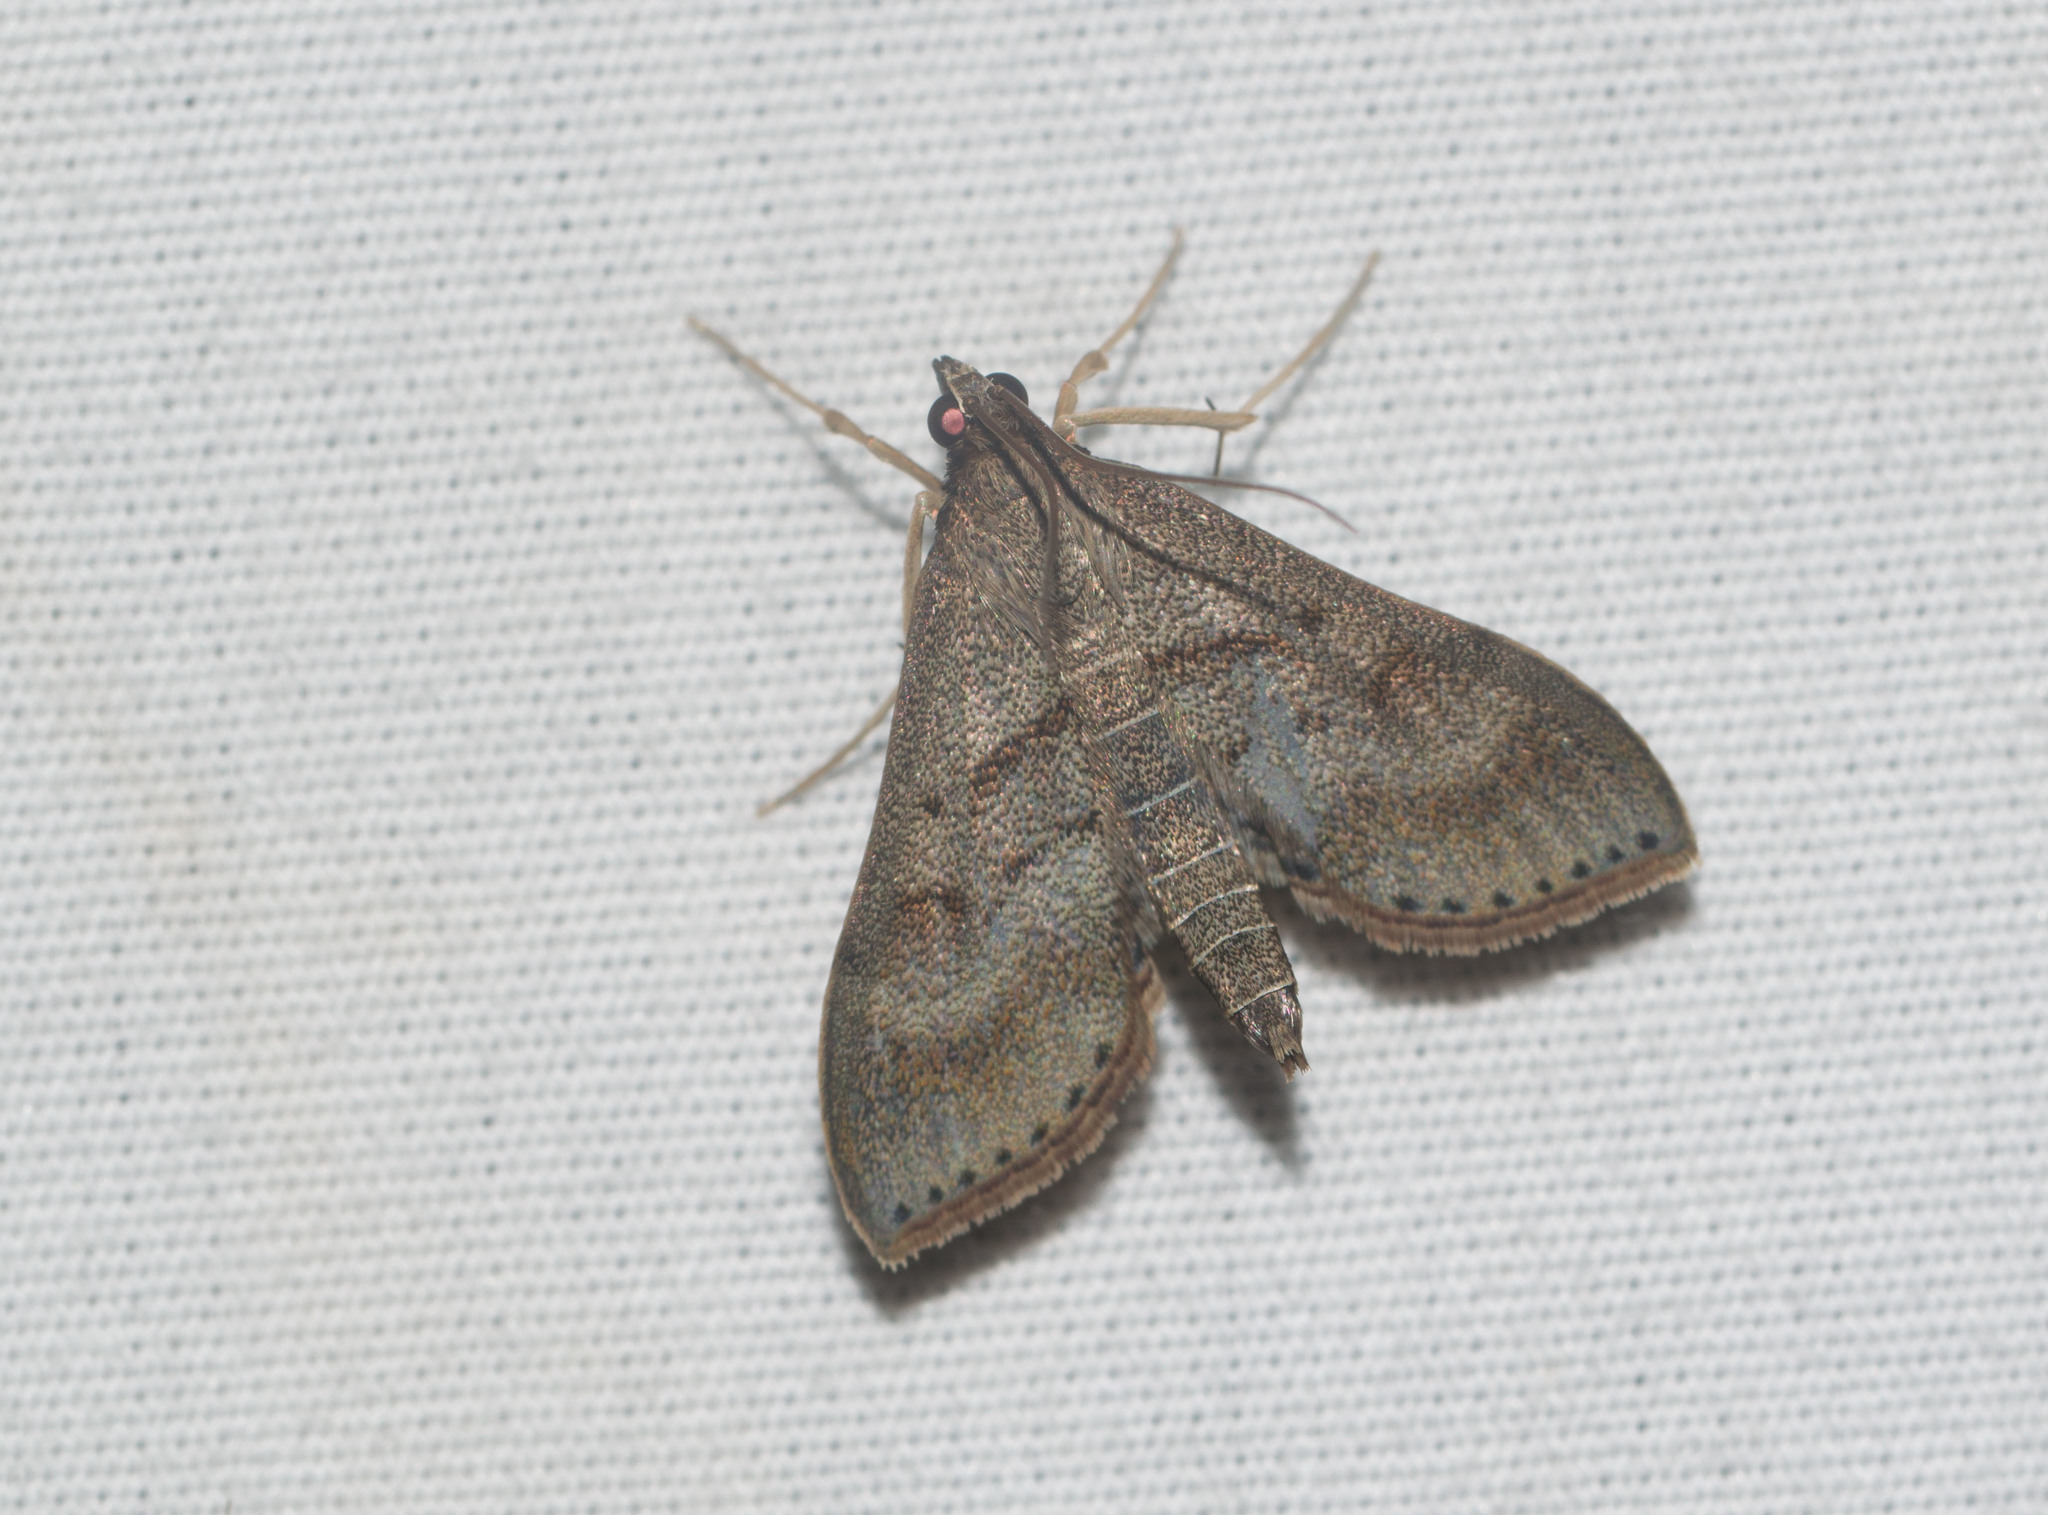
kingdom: Animalia
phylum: Arthropoda
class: Insecta
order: Lepidoptera
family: Crambidae
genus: Omiodes
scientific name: Omiodes localis
